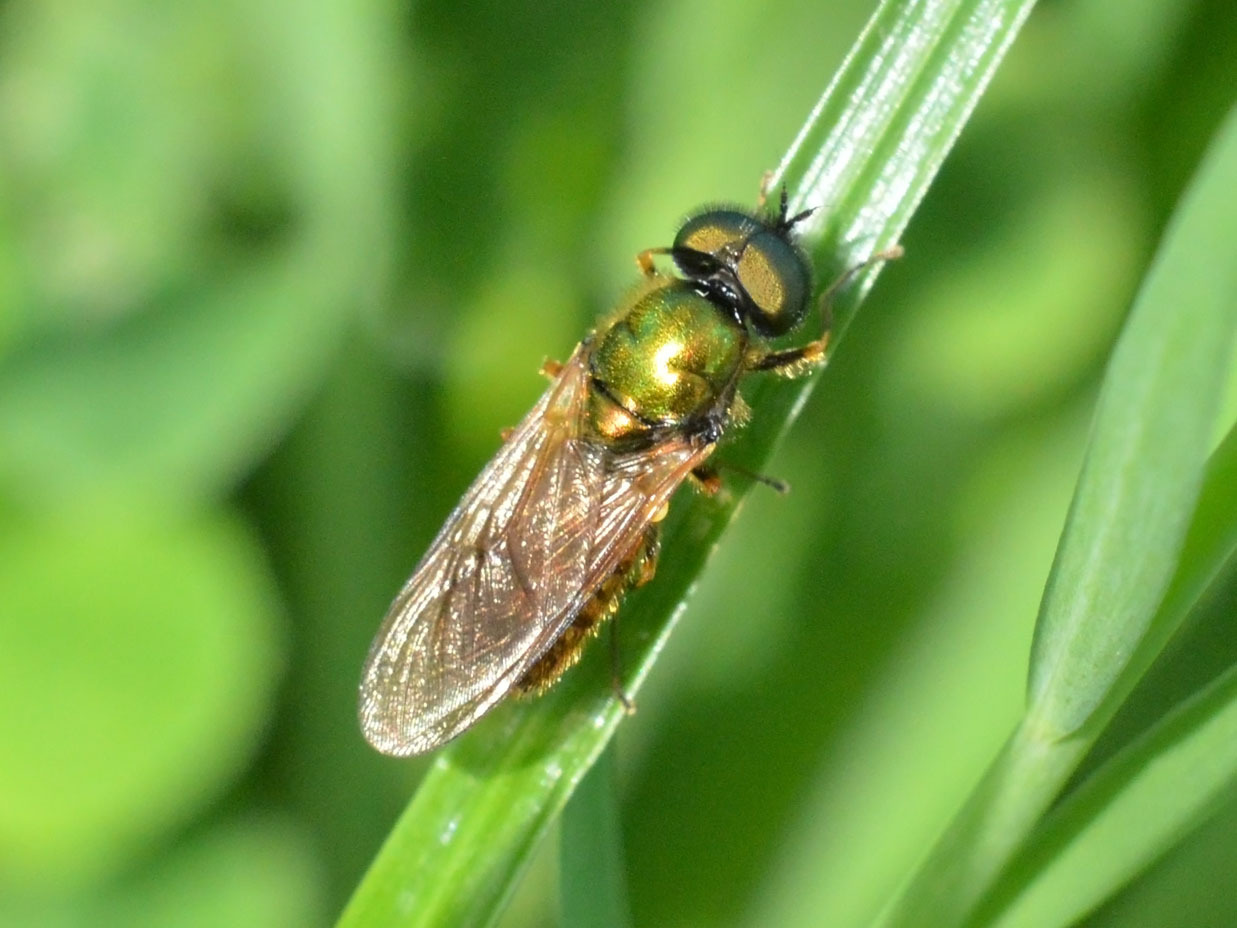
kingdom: Animalia
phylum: Arthropoda
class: Insecta
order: Diptera
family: Stratiomyidae
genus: Chloromyia
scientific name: Chloromyia formosa
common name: Soldier fly
